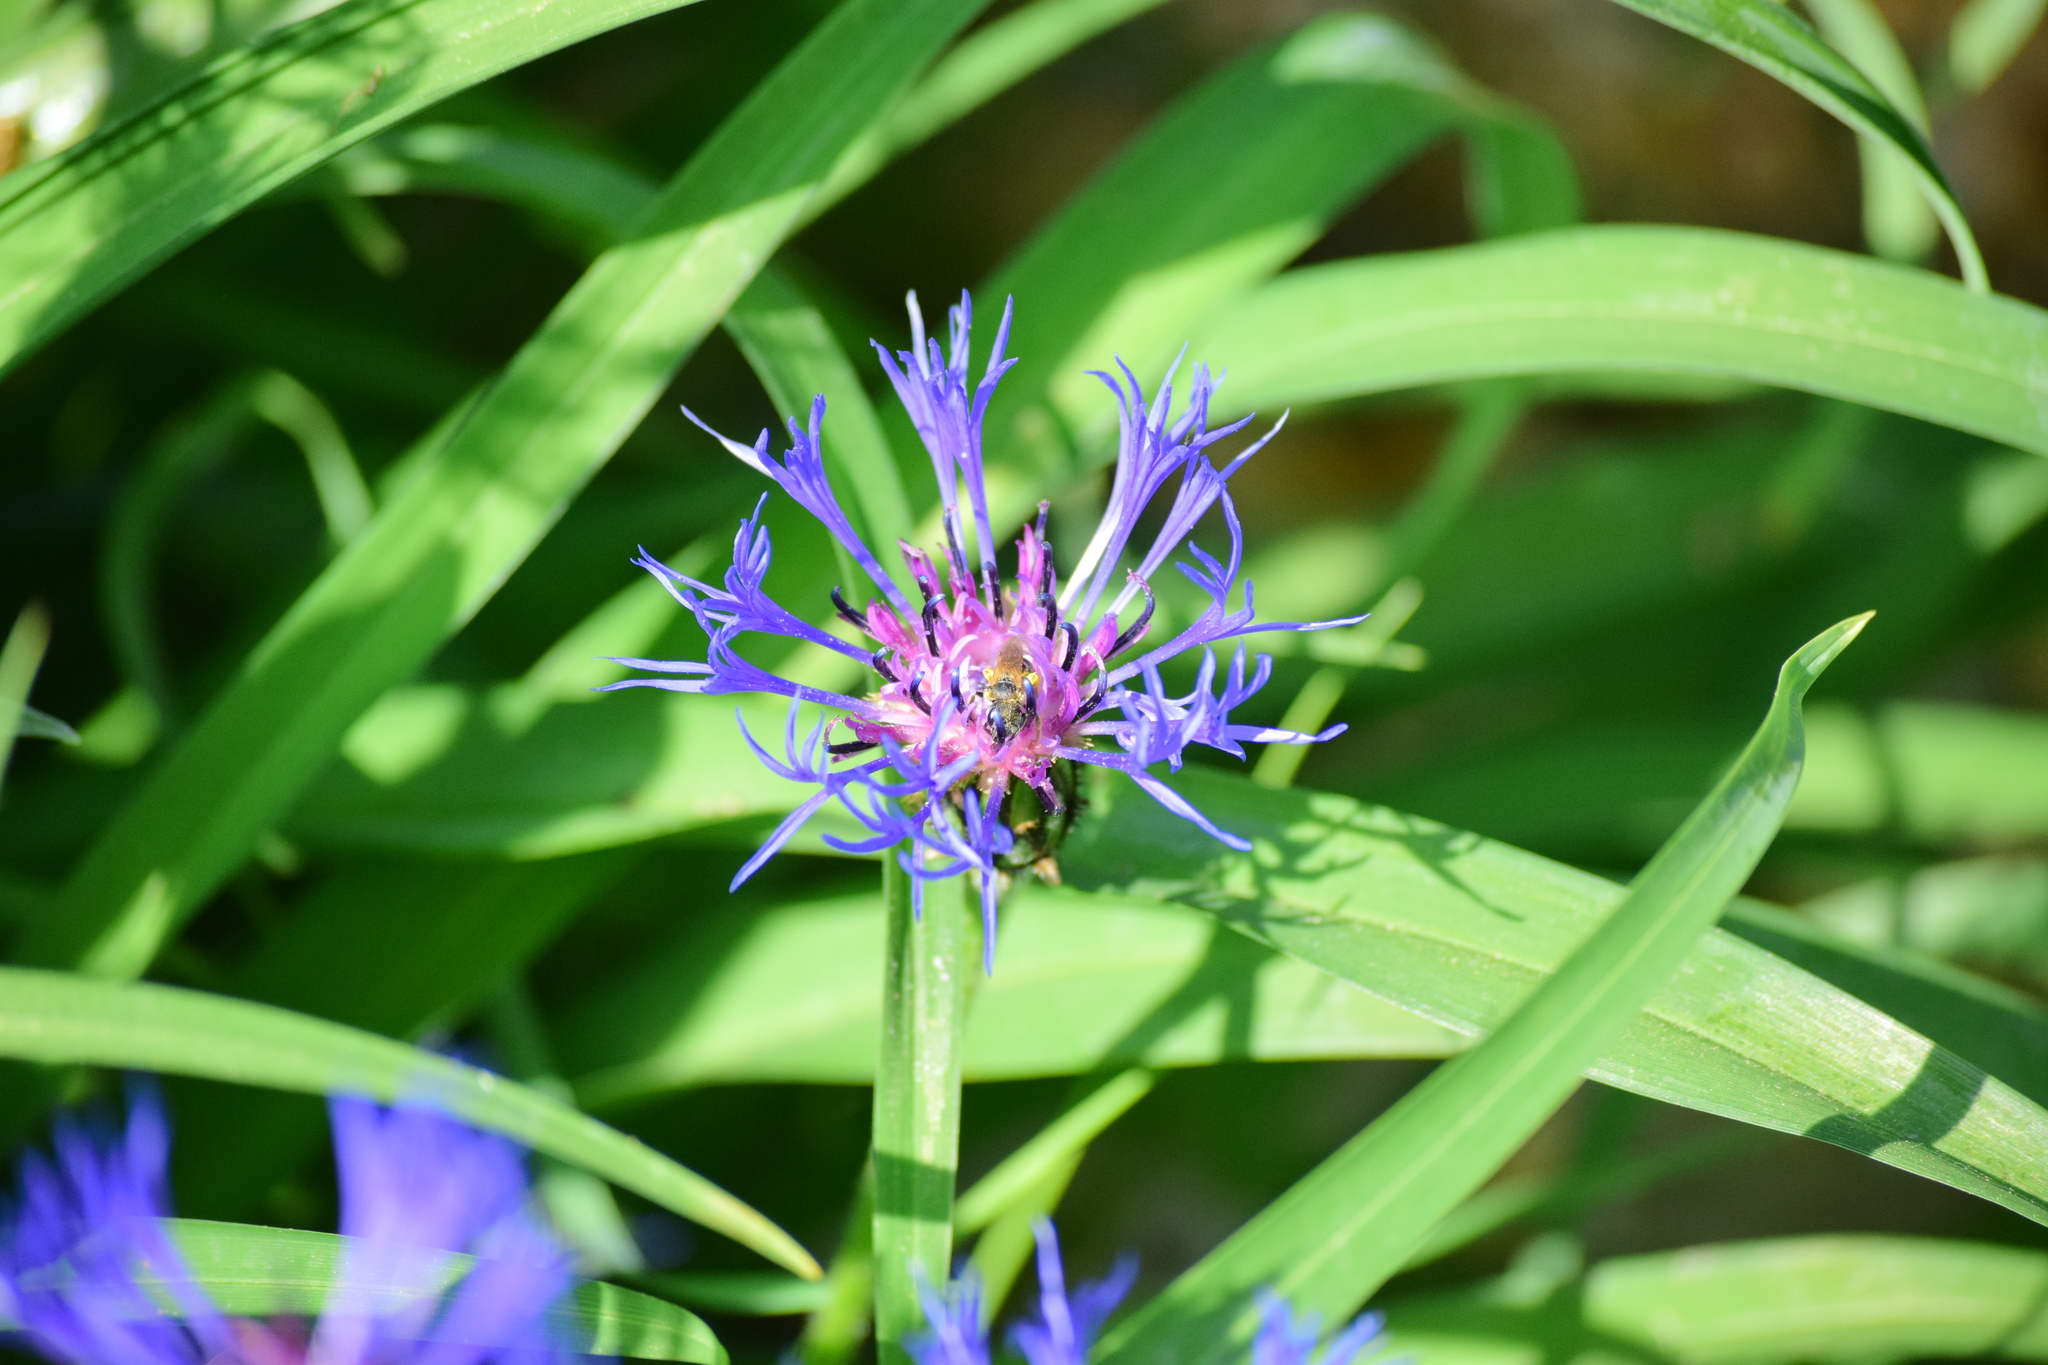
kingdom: Animalia
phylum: Arthropoda
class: Insecta
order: Hymenoptera
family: Halictidae
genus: Halictus
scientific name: Halictus ligatus
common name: Ligated furrow bee
